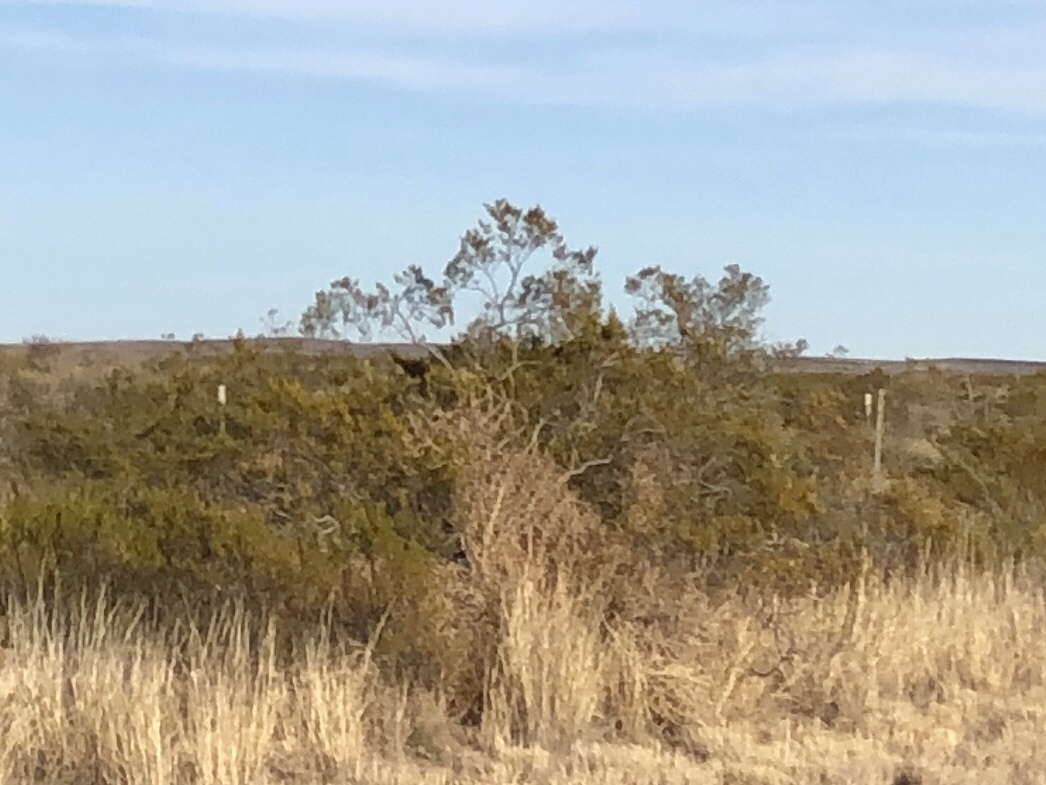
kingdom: Plantae
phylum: Tracheophyta
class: Magnoliopsida
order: Zygophyllales
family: Zygophyllaceae
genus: Larrea
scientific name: Larrea tridentata
